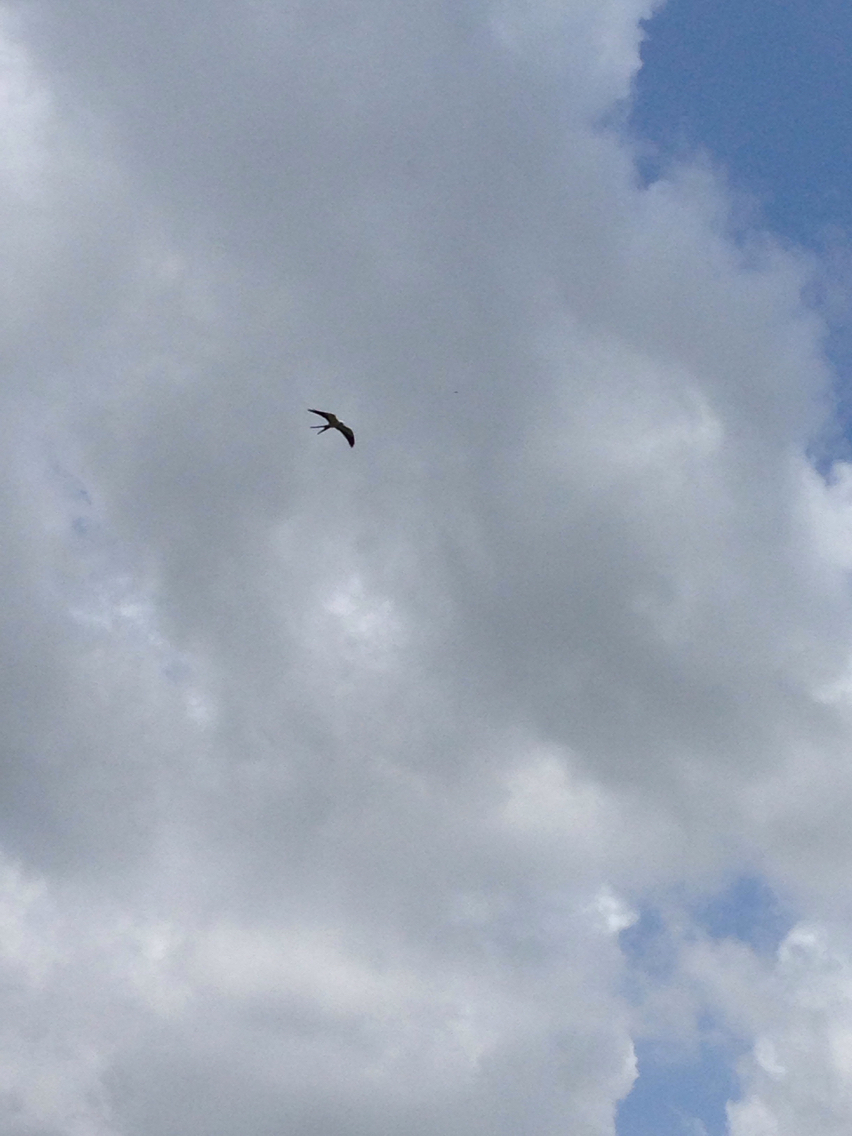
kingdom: Animalia
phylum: Chordata
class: Aves
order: Accipitriformes
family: Accipitridae
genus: Elanoides
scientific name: Elanoides forficatus
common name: Swallow-tailed kite
